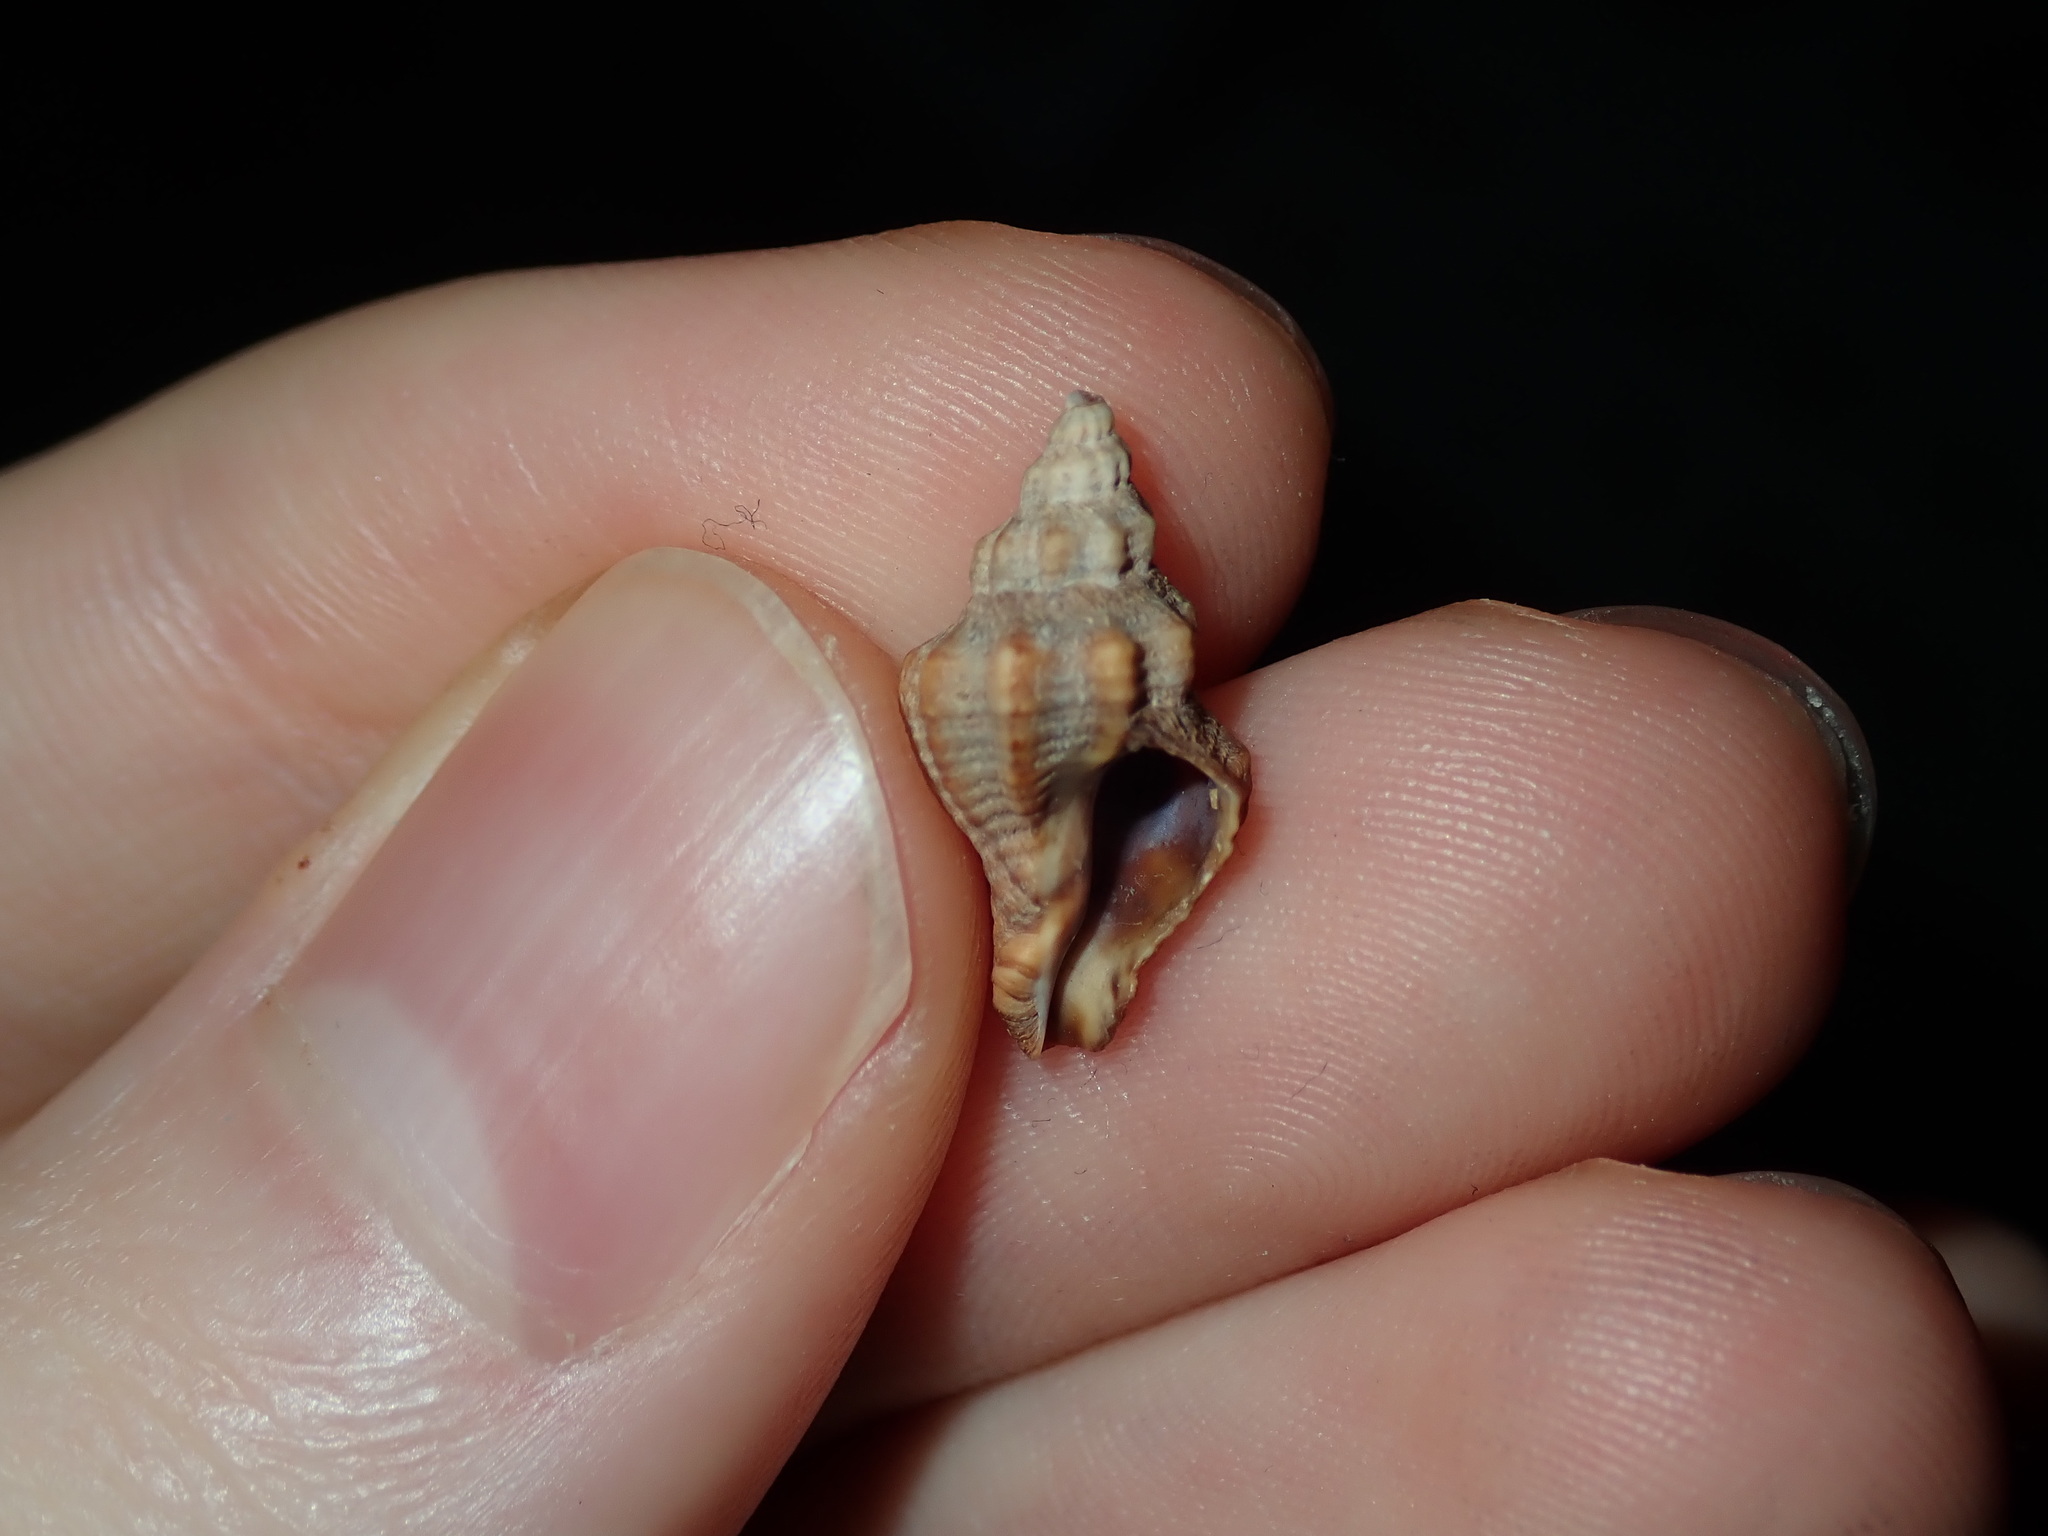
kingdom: Animalia
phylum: Mollusca
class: Gastropoda
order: Neogastropoda
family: Muricidae
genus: Bedeva
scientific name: Bedeva paivae
